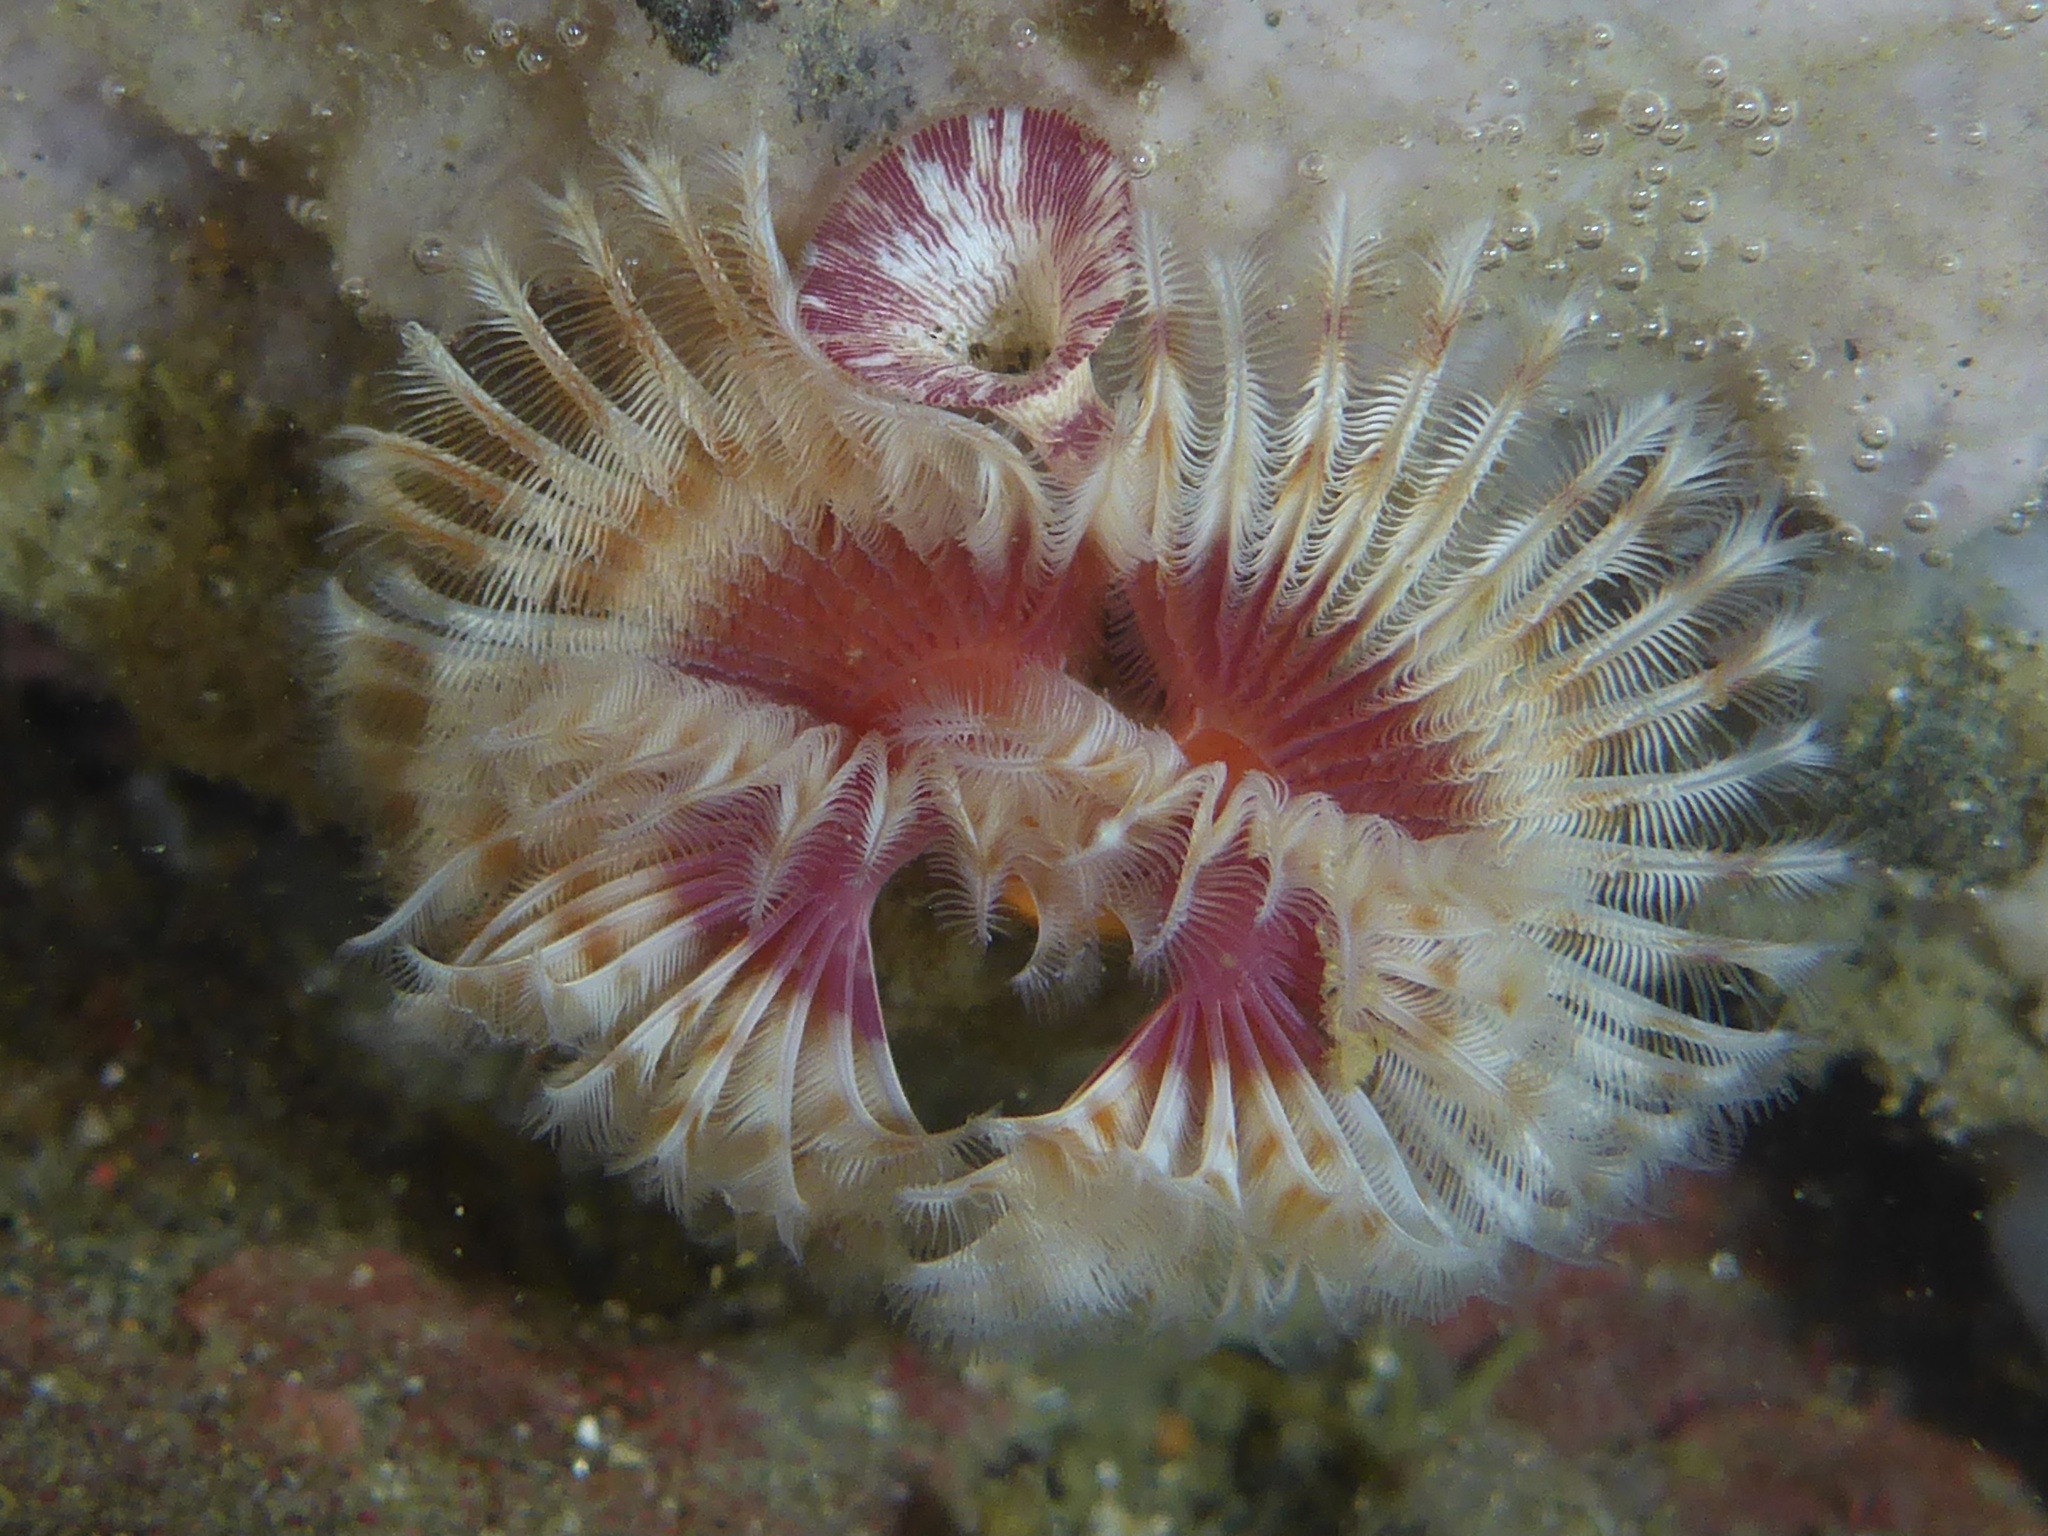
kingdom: Animalia
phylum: Annelida
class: Polychaeta
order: Sabellida
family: Serpulidae
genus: Serpula
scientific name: Serpula columbiana
